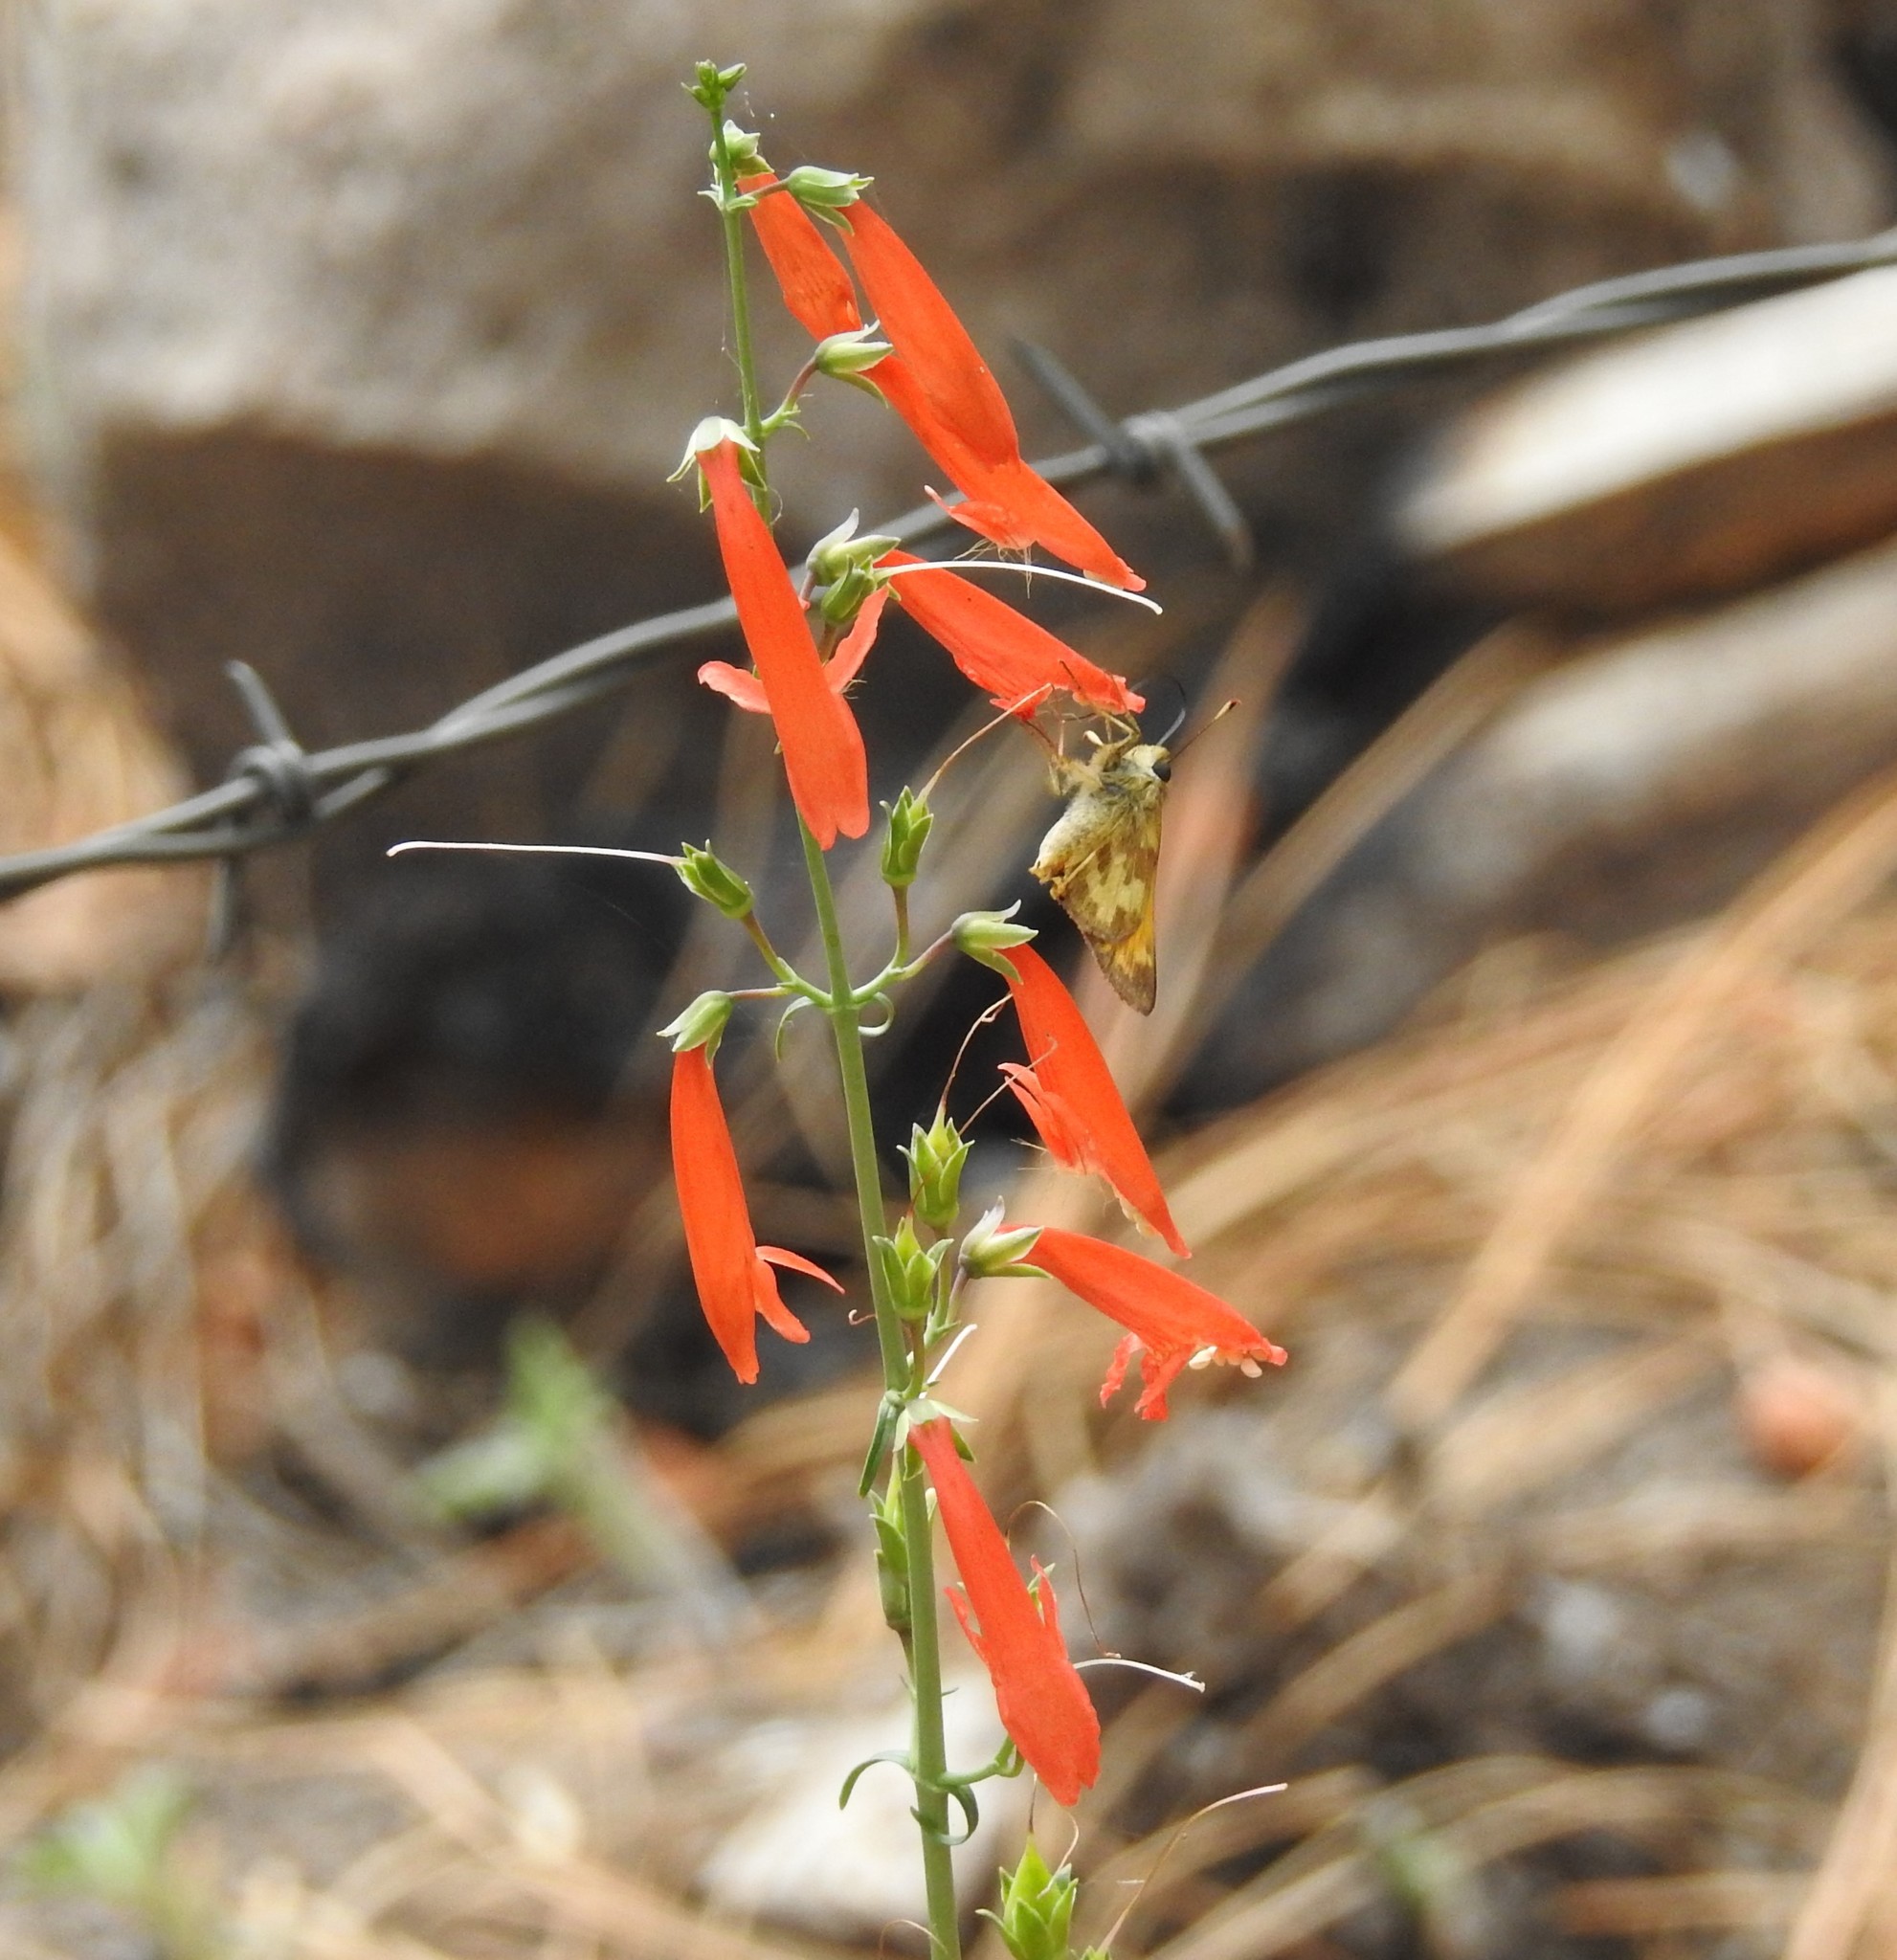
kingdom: Plantae
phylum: Tracheophyta
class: Magnoliopsida
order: Lamiales
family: Plantaginaceae
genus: Penstemon
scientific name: Penstemon barbatus
